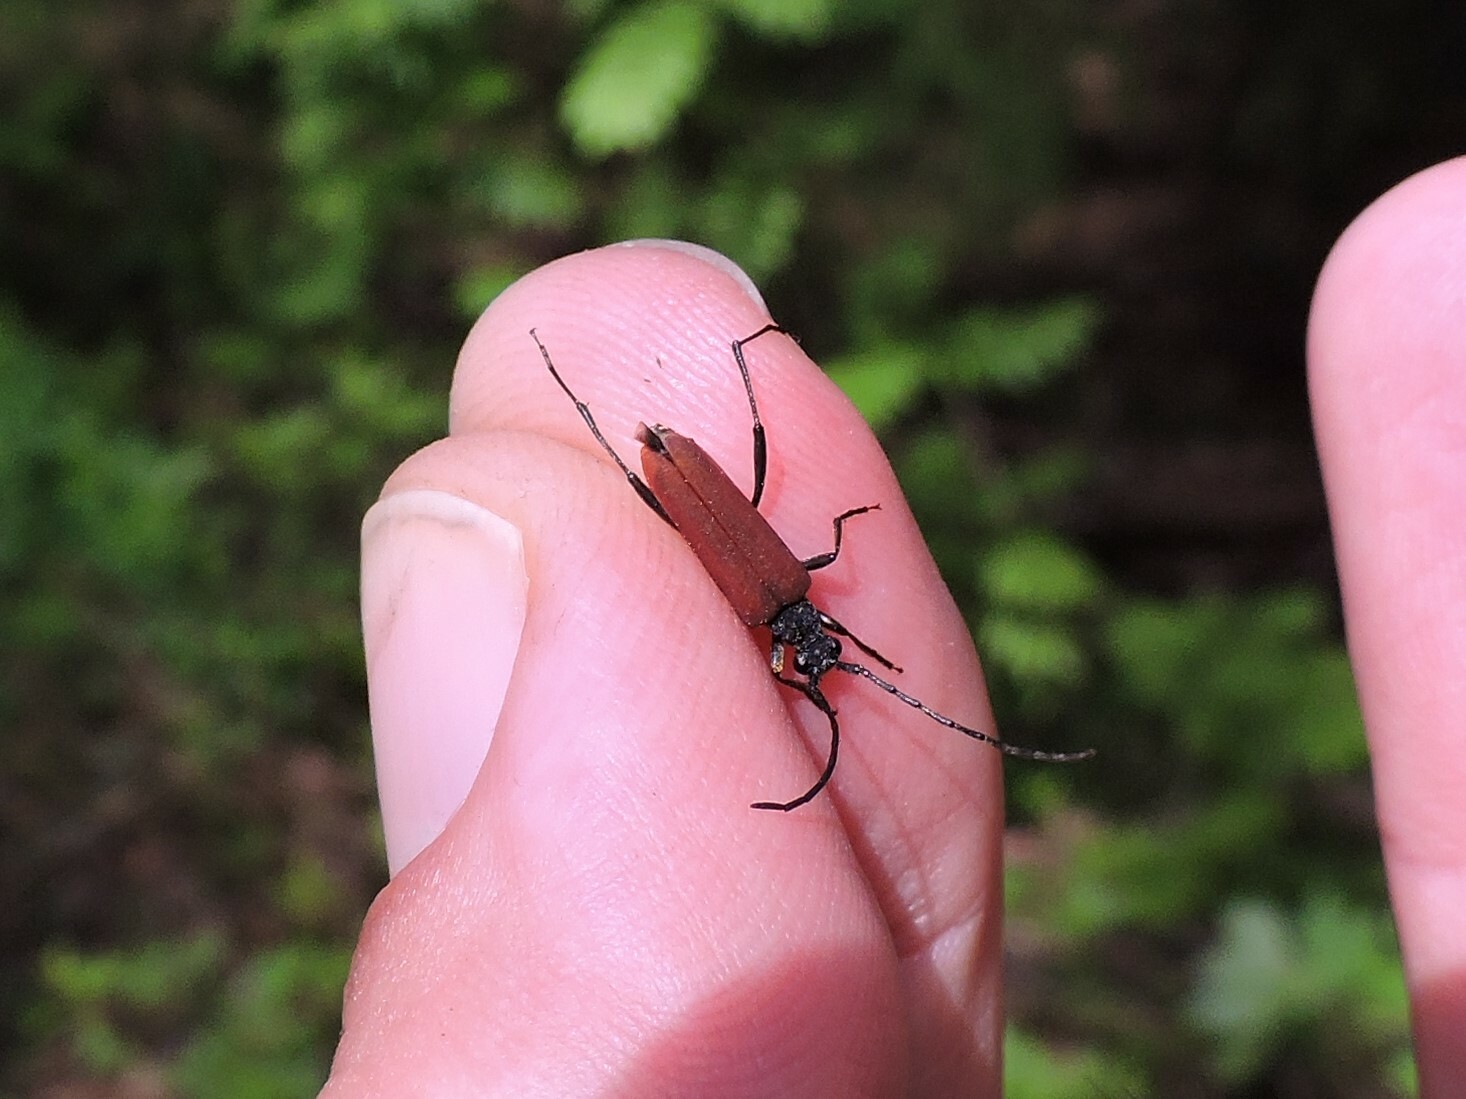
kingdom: Animalia
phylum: Arthropoda
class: Insecta
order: Coleoptera
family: Cerambycidae
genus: Nivellia
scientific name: Nivellia sanguinosa
